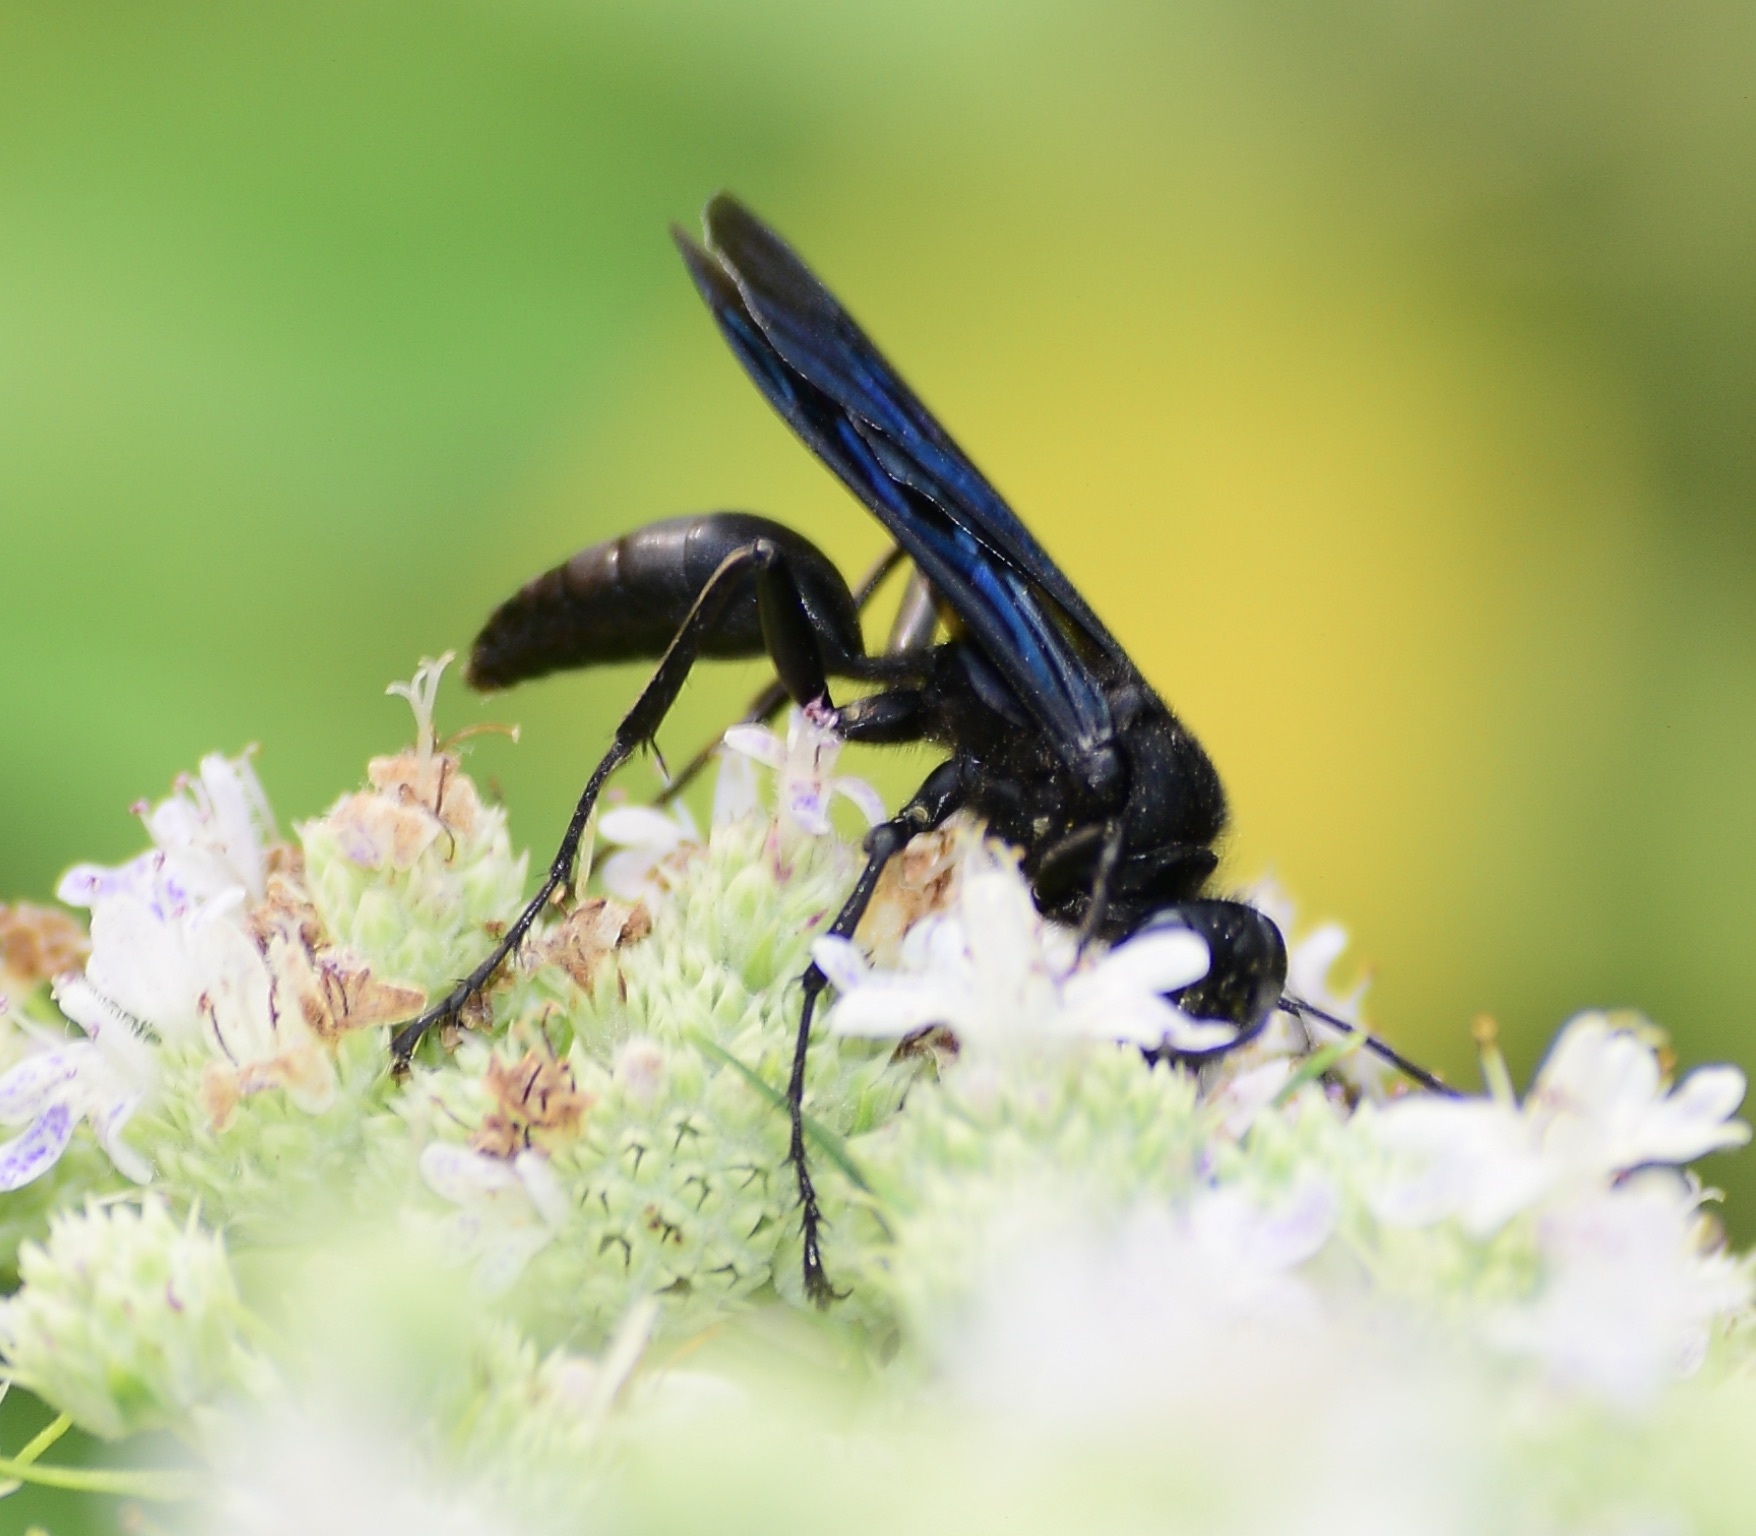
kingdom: Animalia
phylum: Arthropoda
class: Insecta
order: Hymenoptera
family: Sphecidae
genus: Sphex
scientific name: Sphex pensylvanicus
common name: Great black digger wasp
